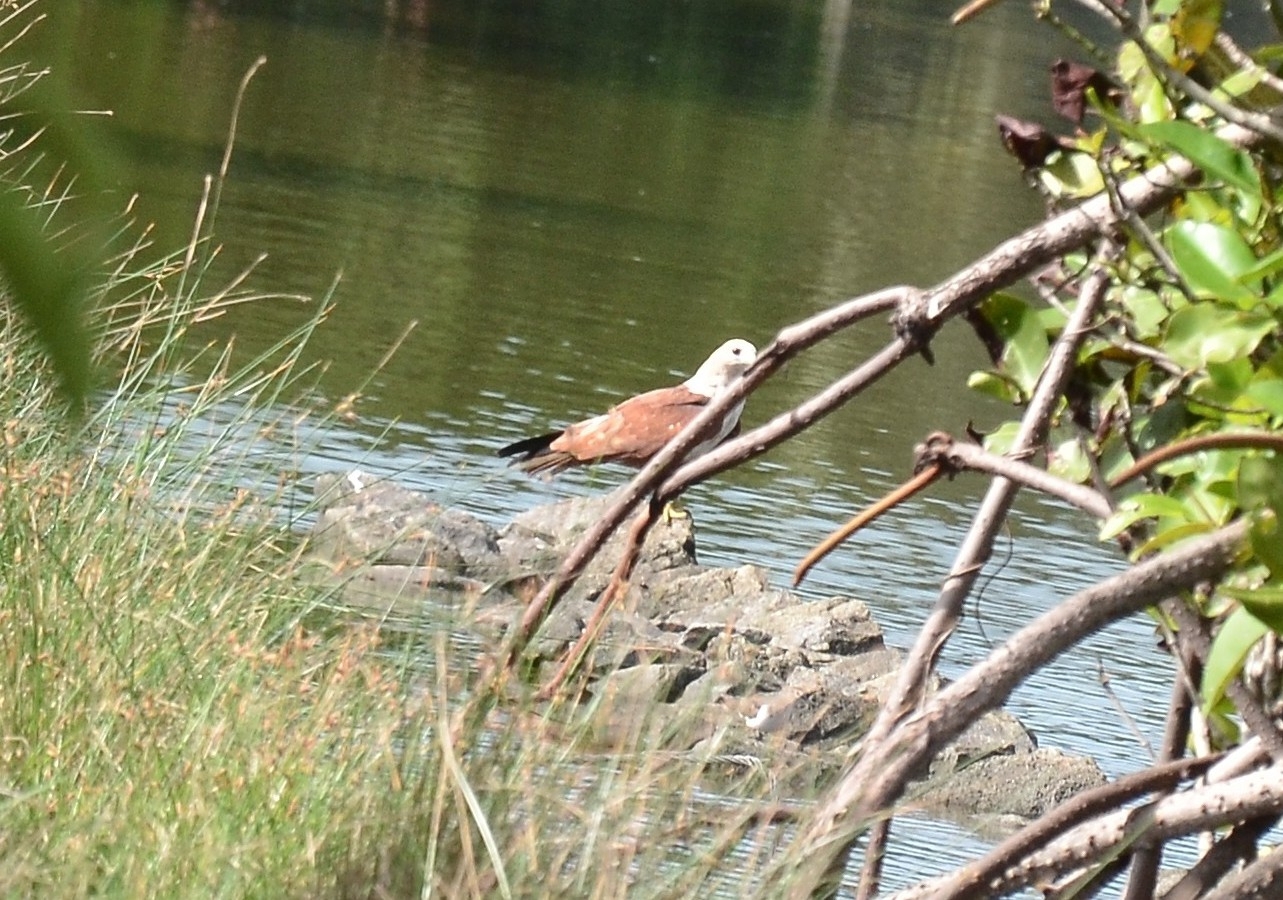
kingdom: Animalia
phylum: Chordata
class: Aves
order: Accipitriformes
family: Accipitridae
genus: Haliastur
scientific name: Haliastur indus
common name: Brahminy kite
